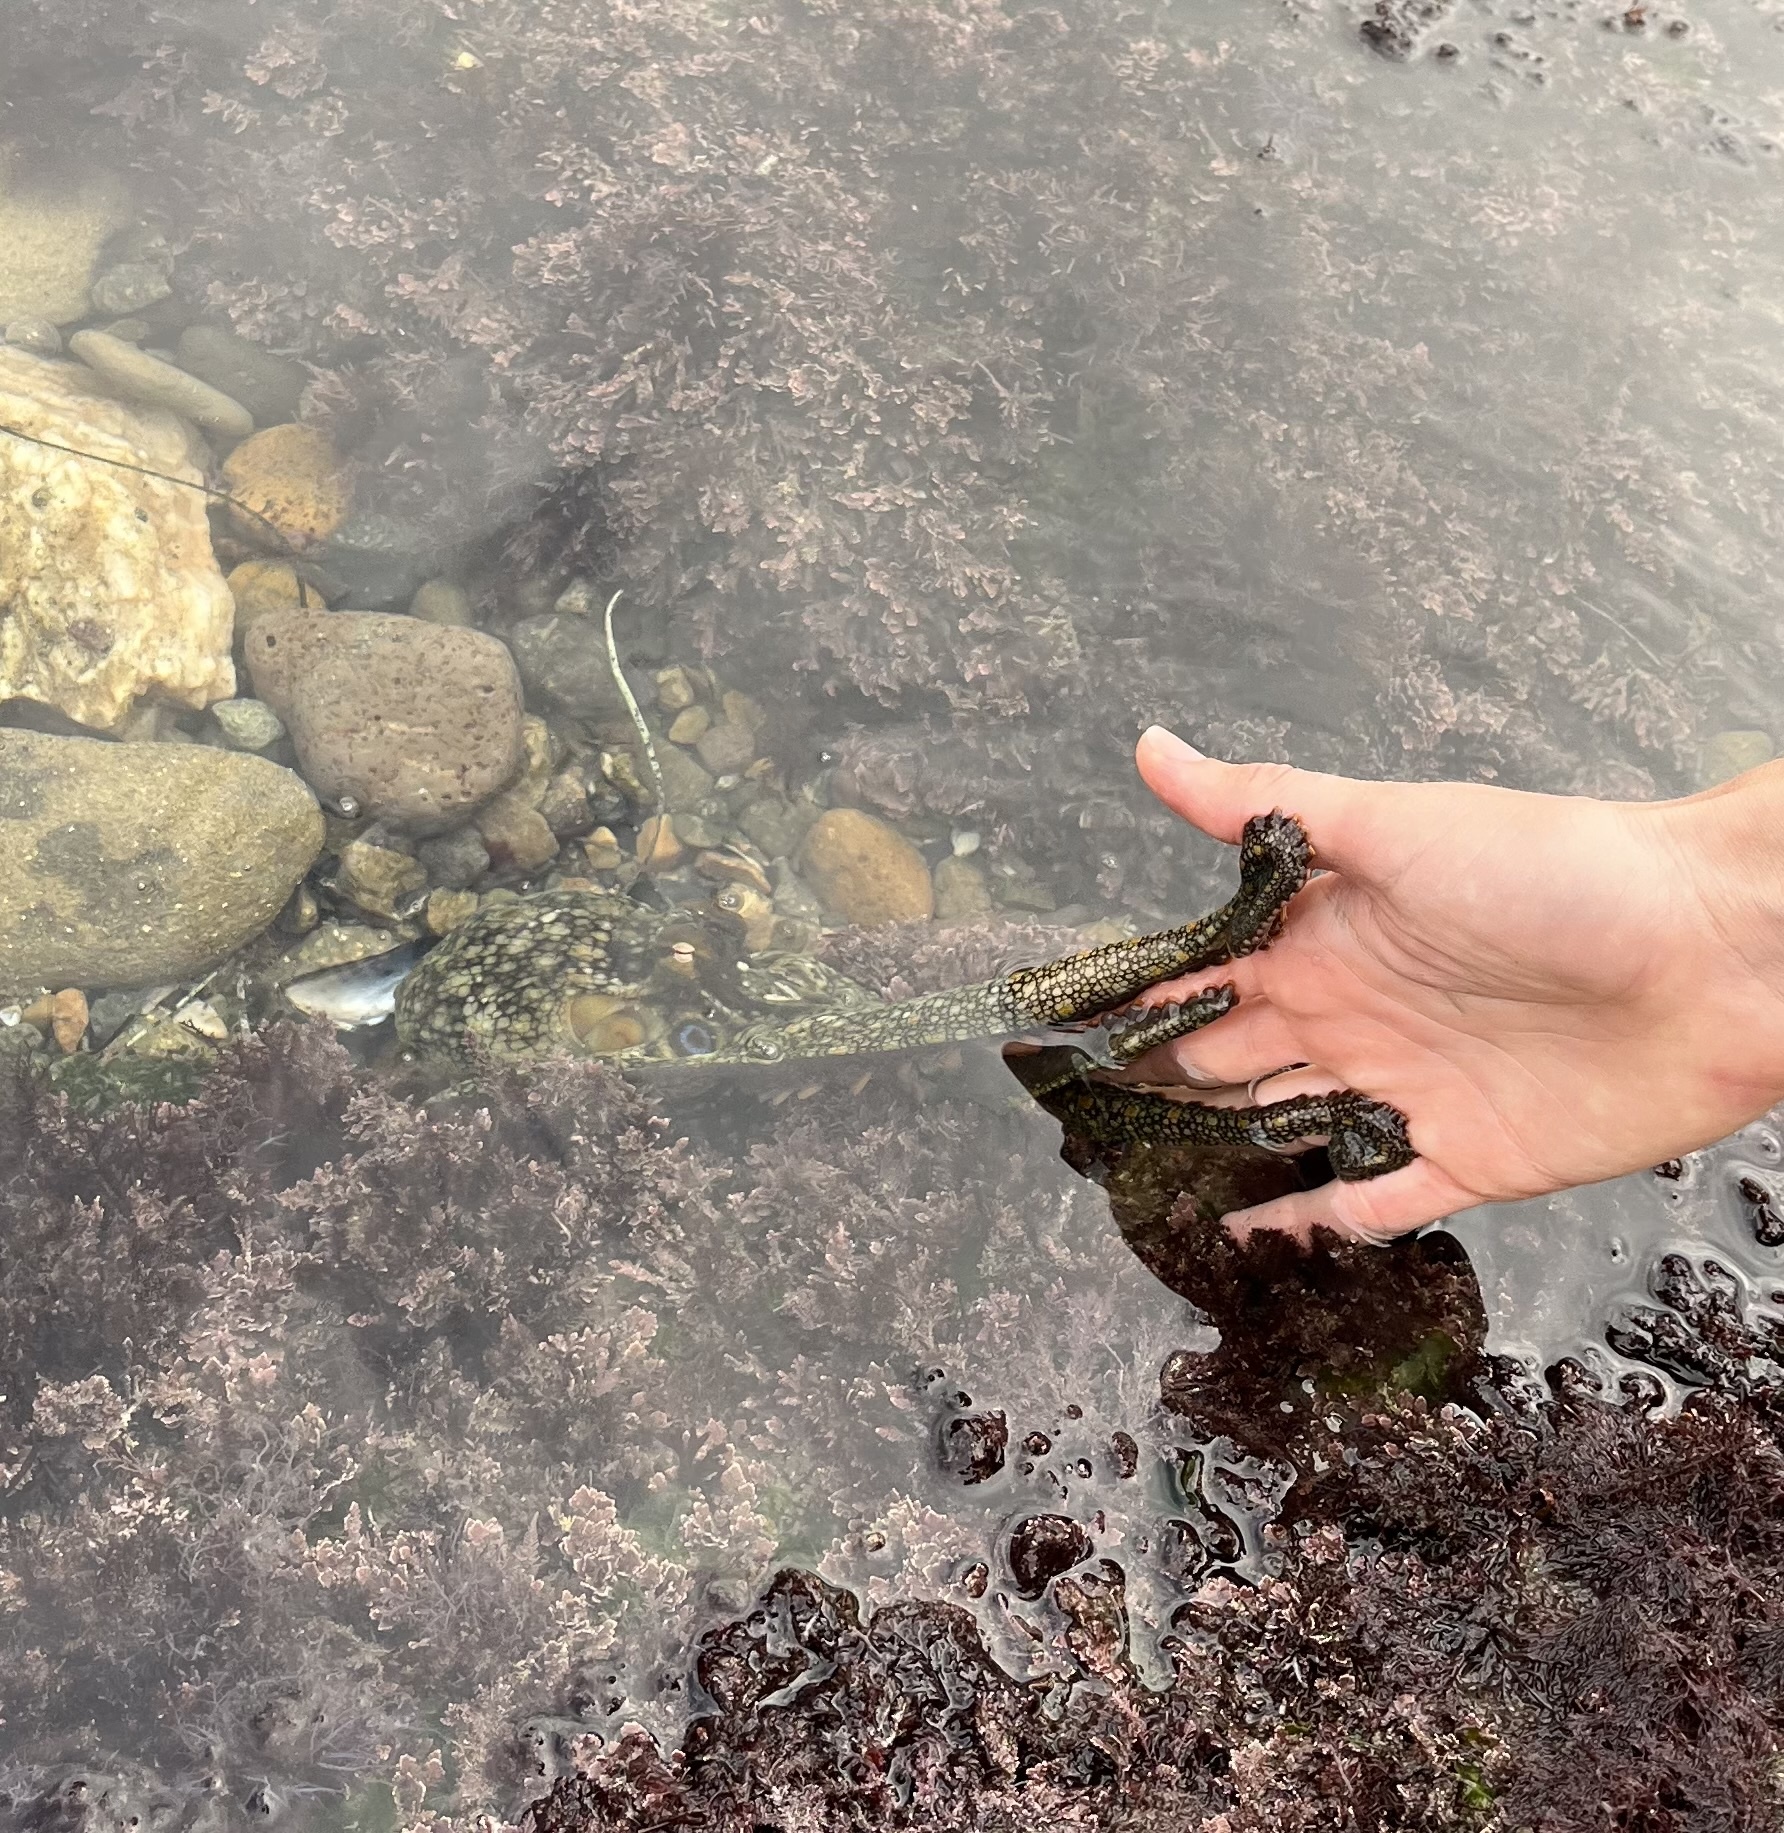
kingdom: Animalia
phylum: Mollusca
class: Cephalopoda
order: Octopoda
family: Octopodidae
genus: Octopus
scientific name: Octopus bimaculoides
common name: California two-spot octopus
